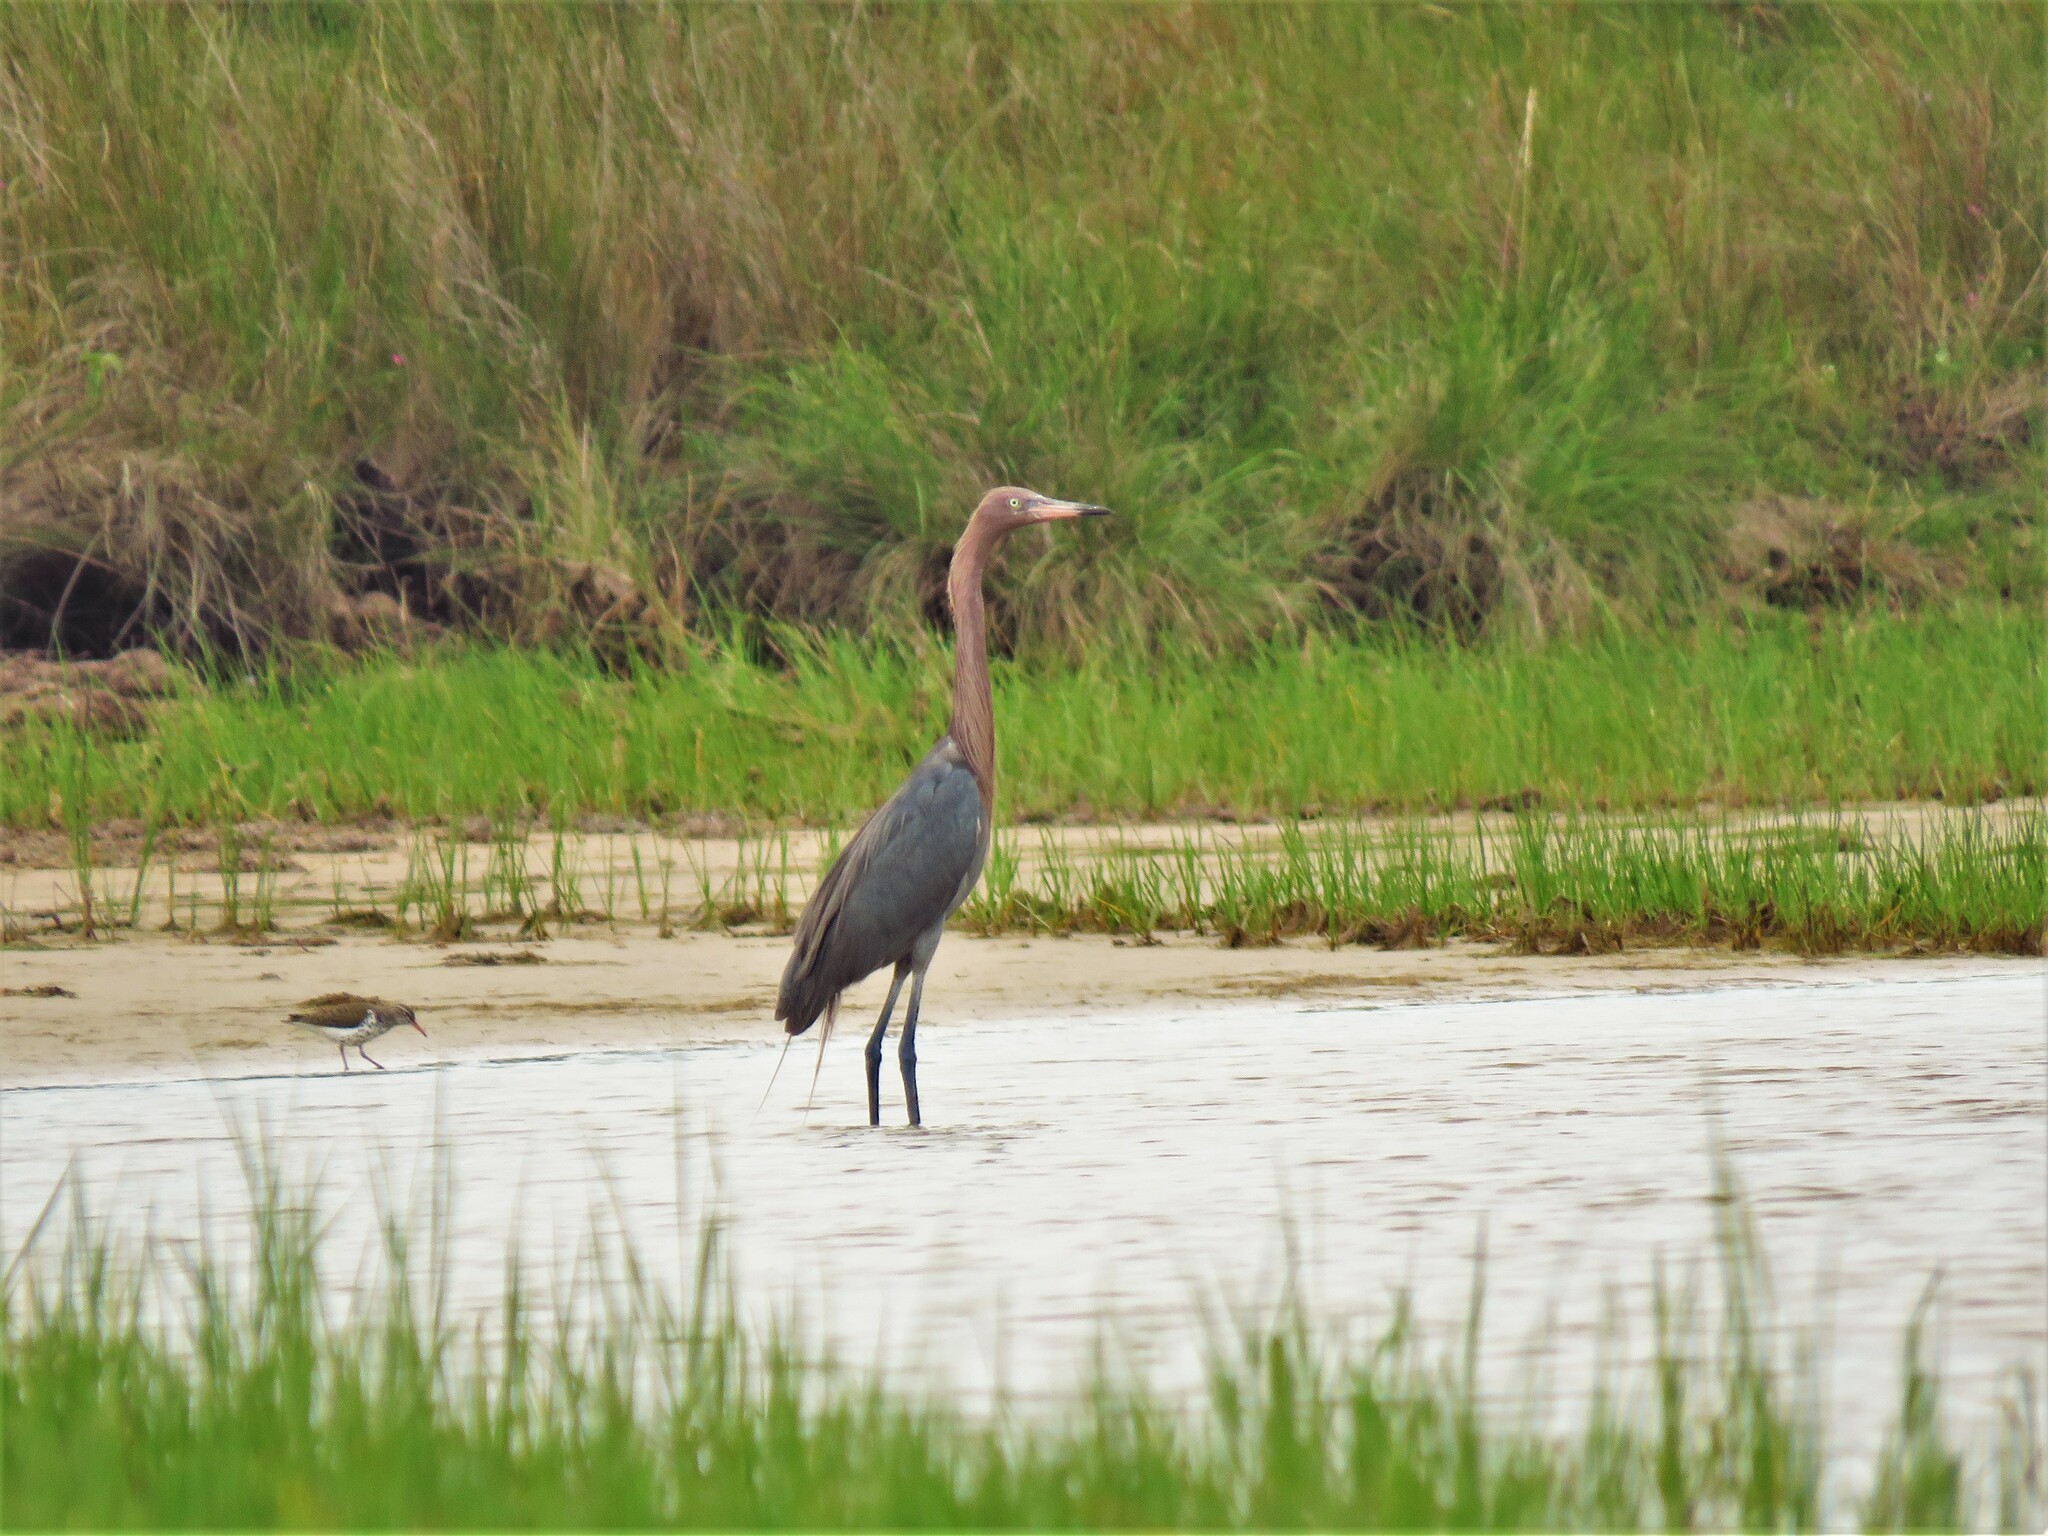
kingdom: Animalia
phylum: Chordata
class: Aves
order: Pelecaniformes
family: Ardeidae
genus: Egretta
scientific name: Egretta rufescens
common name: Reddish egret
